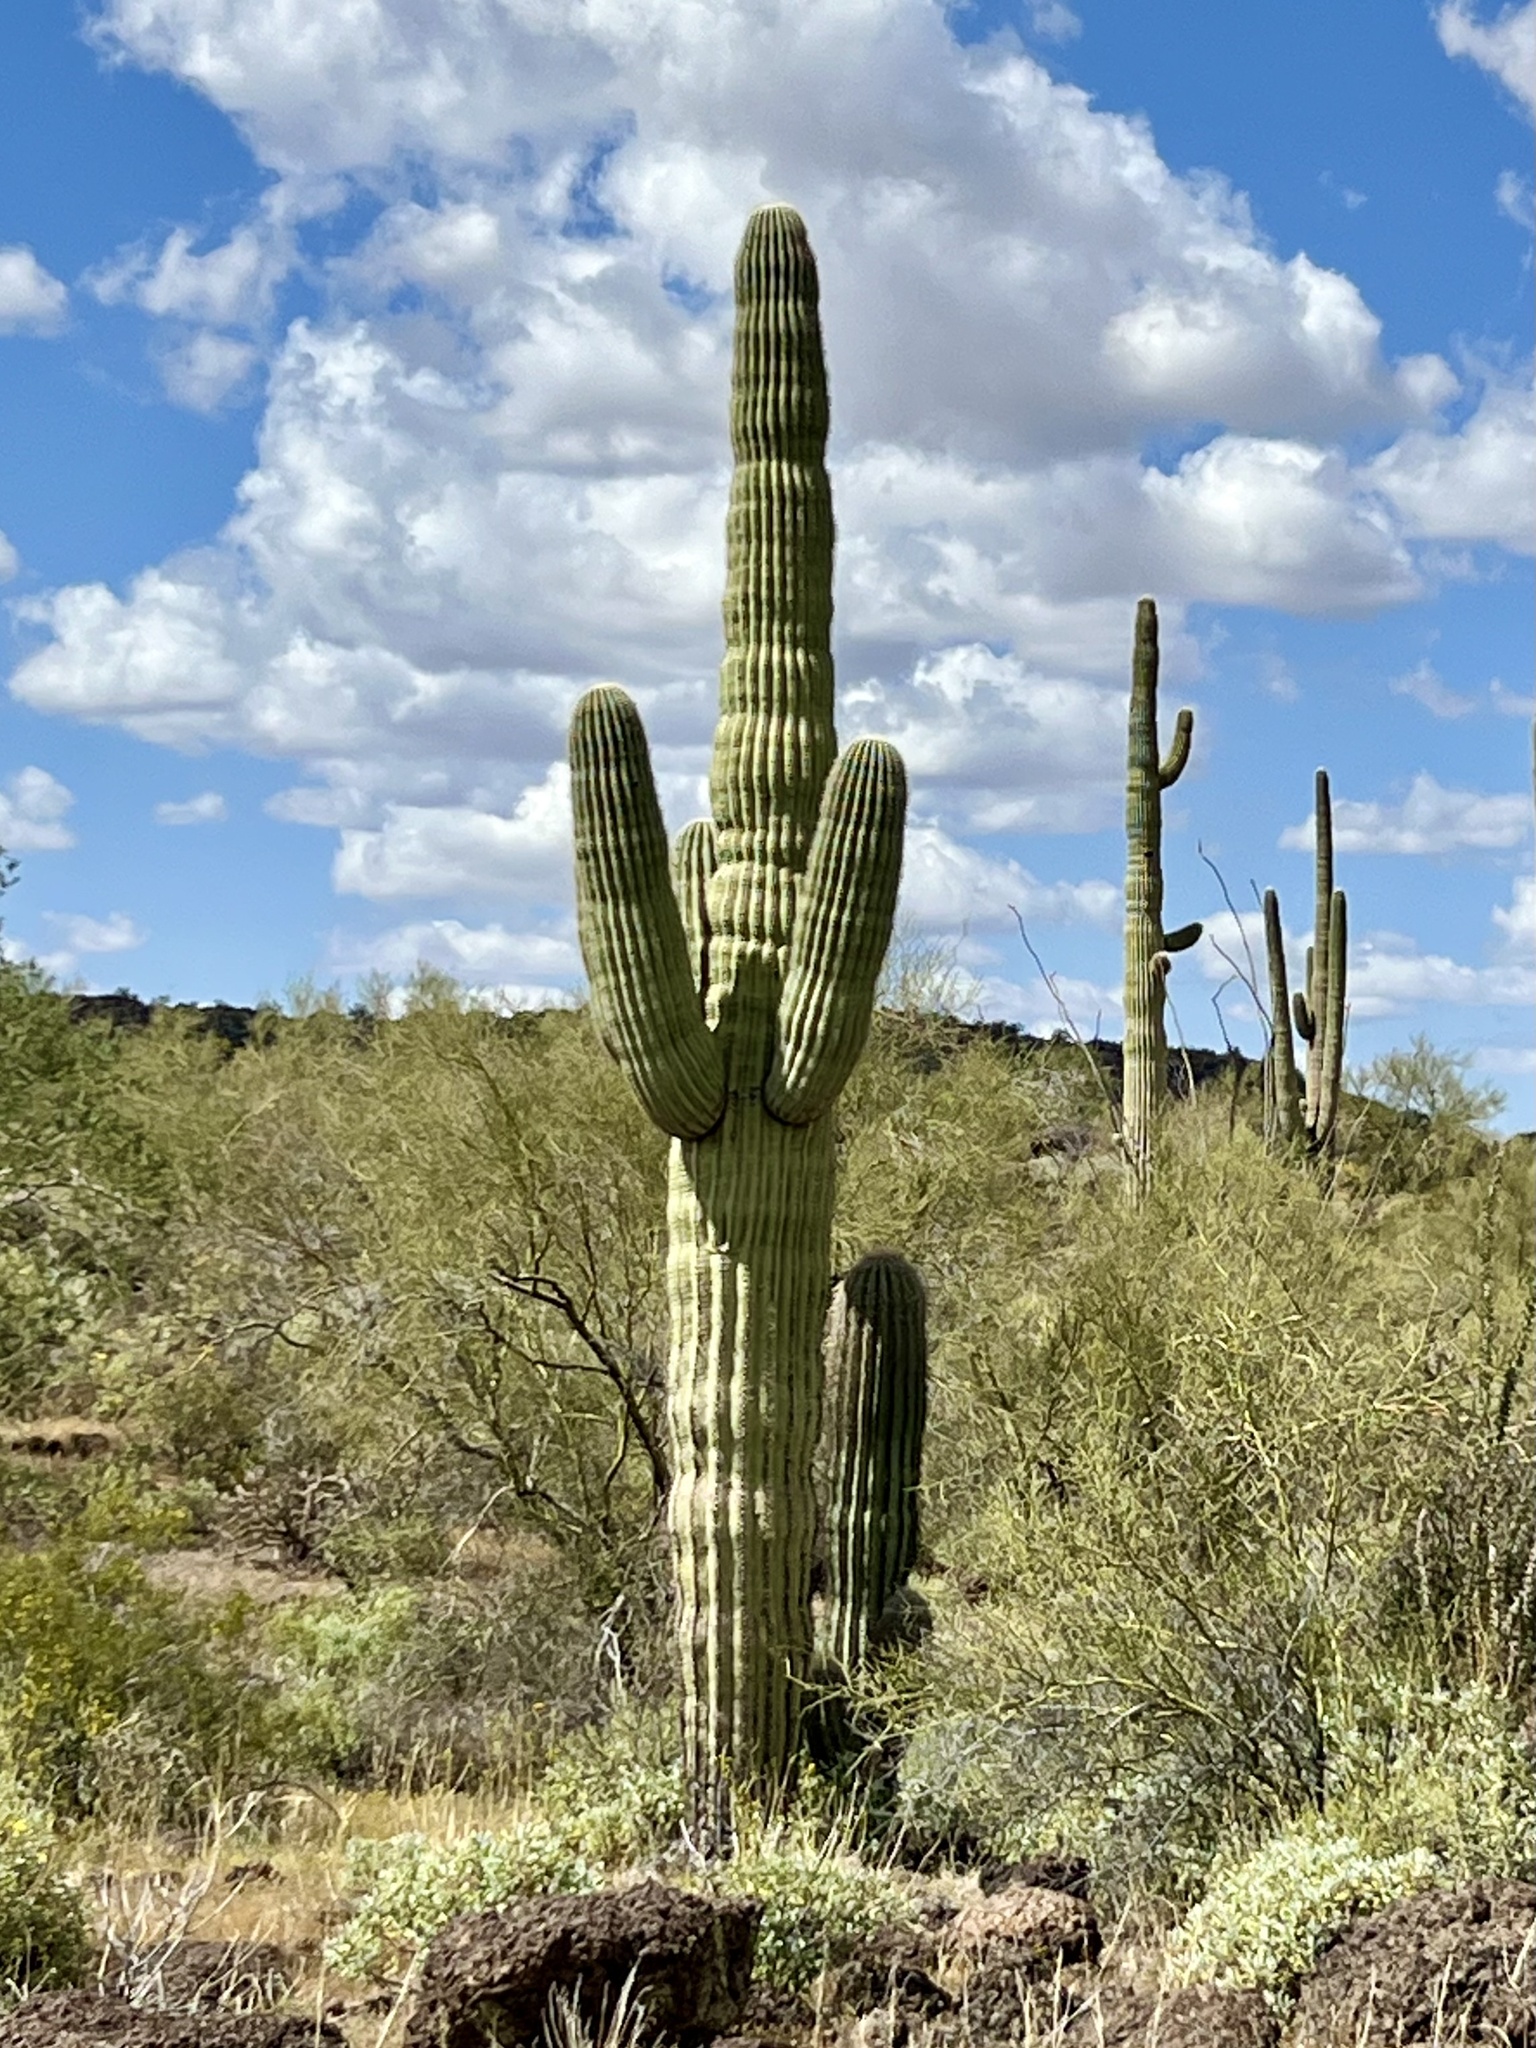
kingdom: Plantae
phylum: Tracheophyta
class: Magnoliopsida
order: Caryophyllales
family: Cactaceae
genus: Carnegiea
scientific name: Carnegiea gigantea
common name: Saguaro
